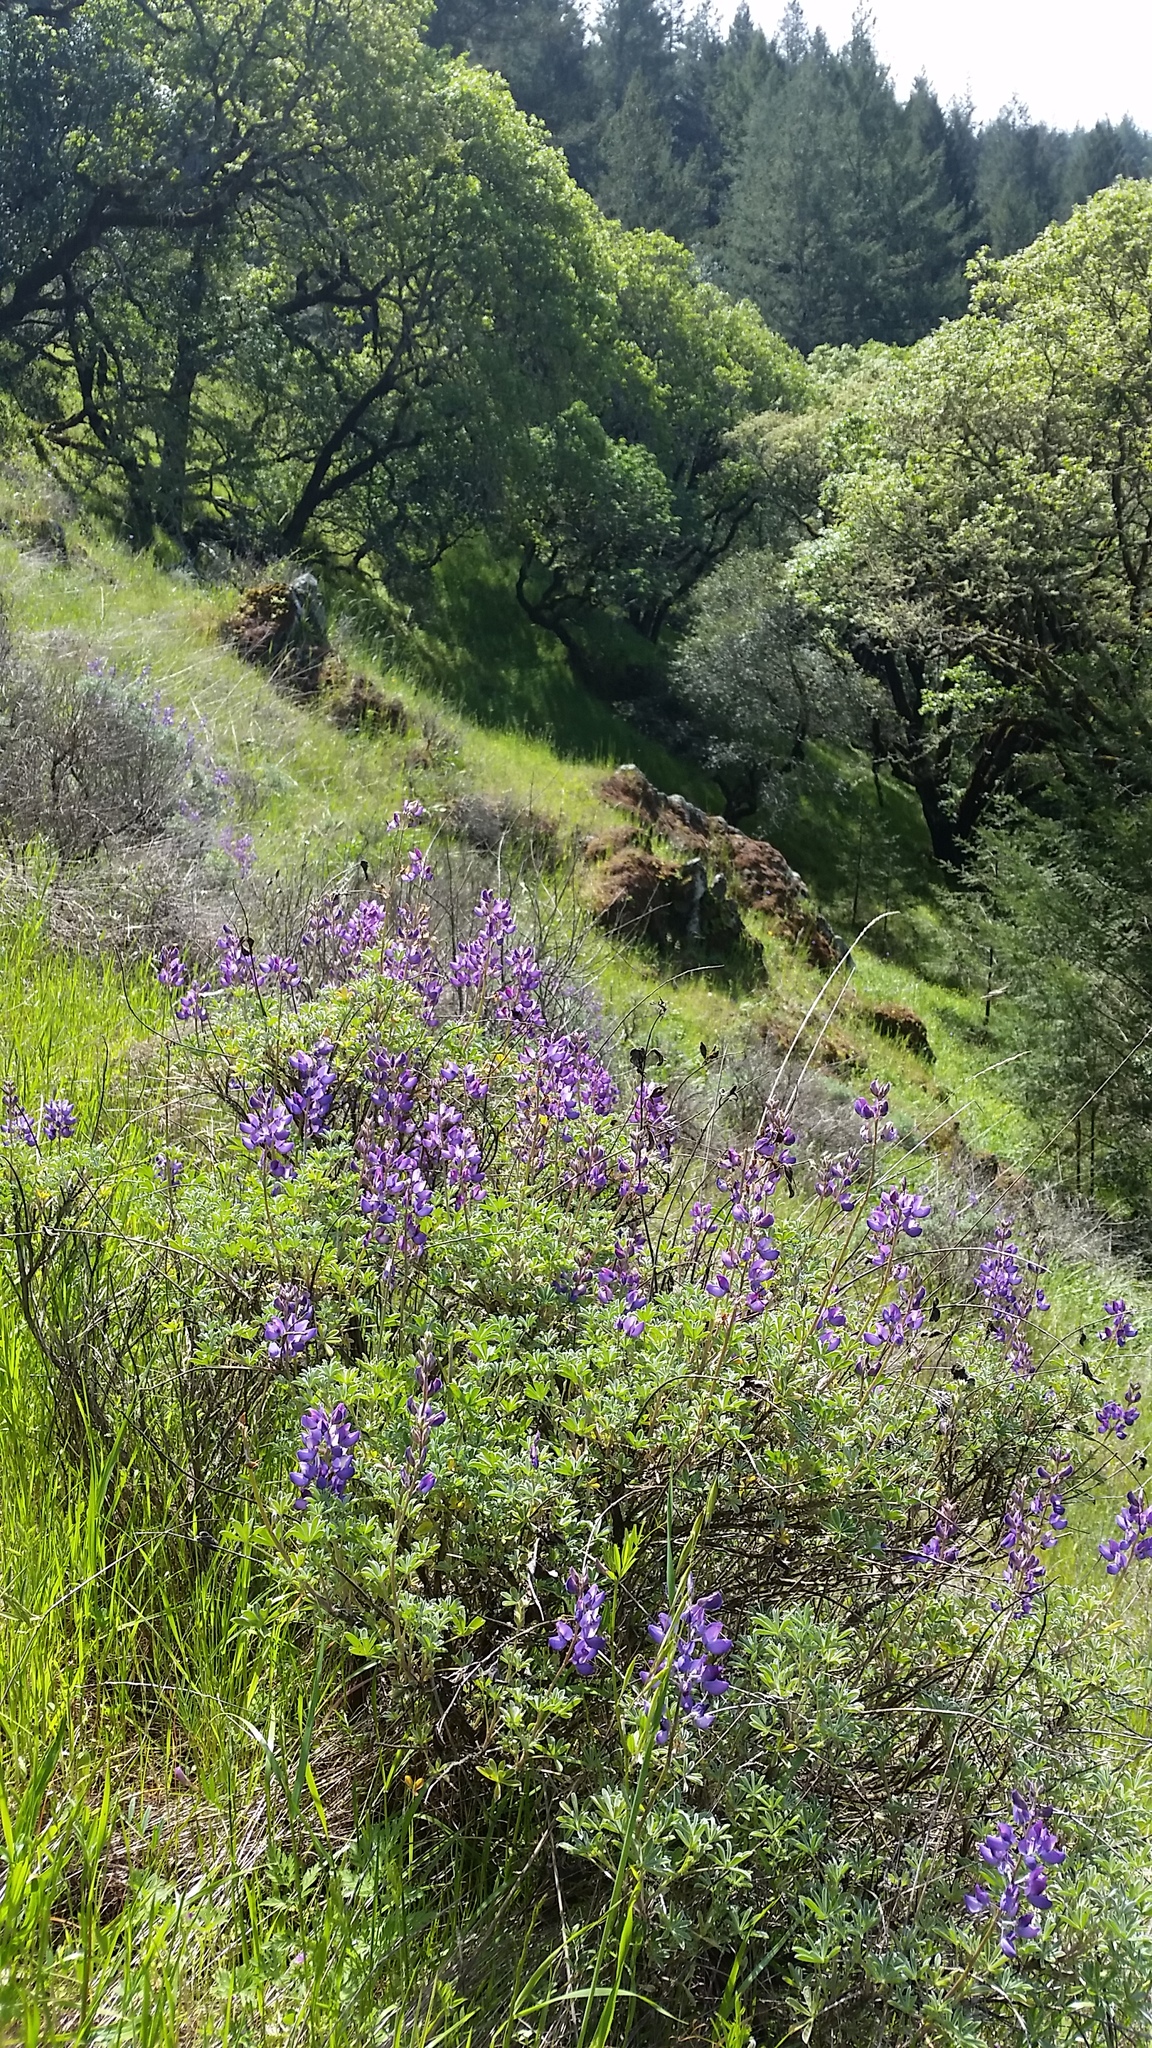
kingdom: Plantae
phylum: Tracheophyta
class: Magnoliopsida
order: Fabales
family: Fabaceae
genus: Lupinus
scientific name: Lupinus albifrons
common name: Foothill lupine
